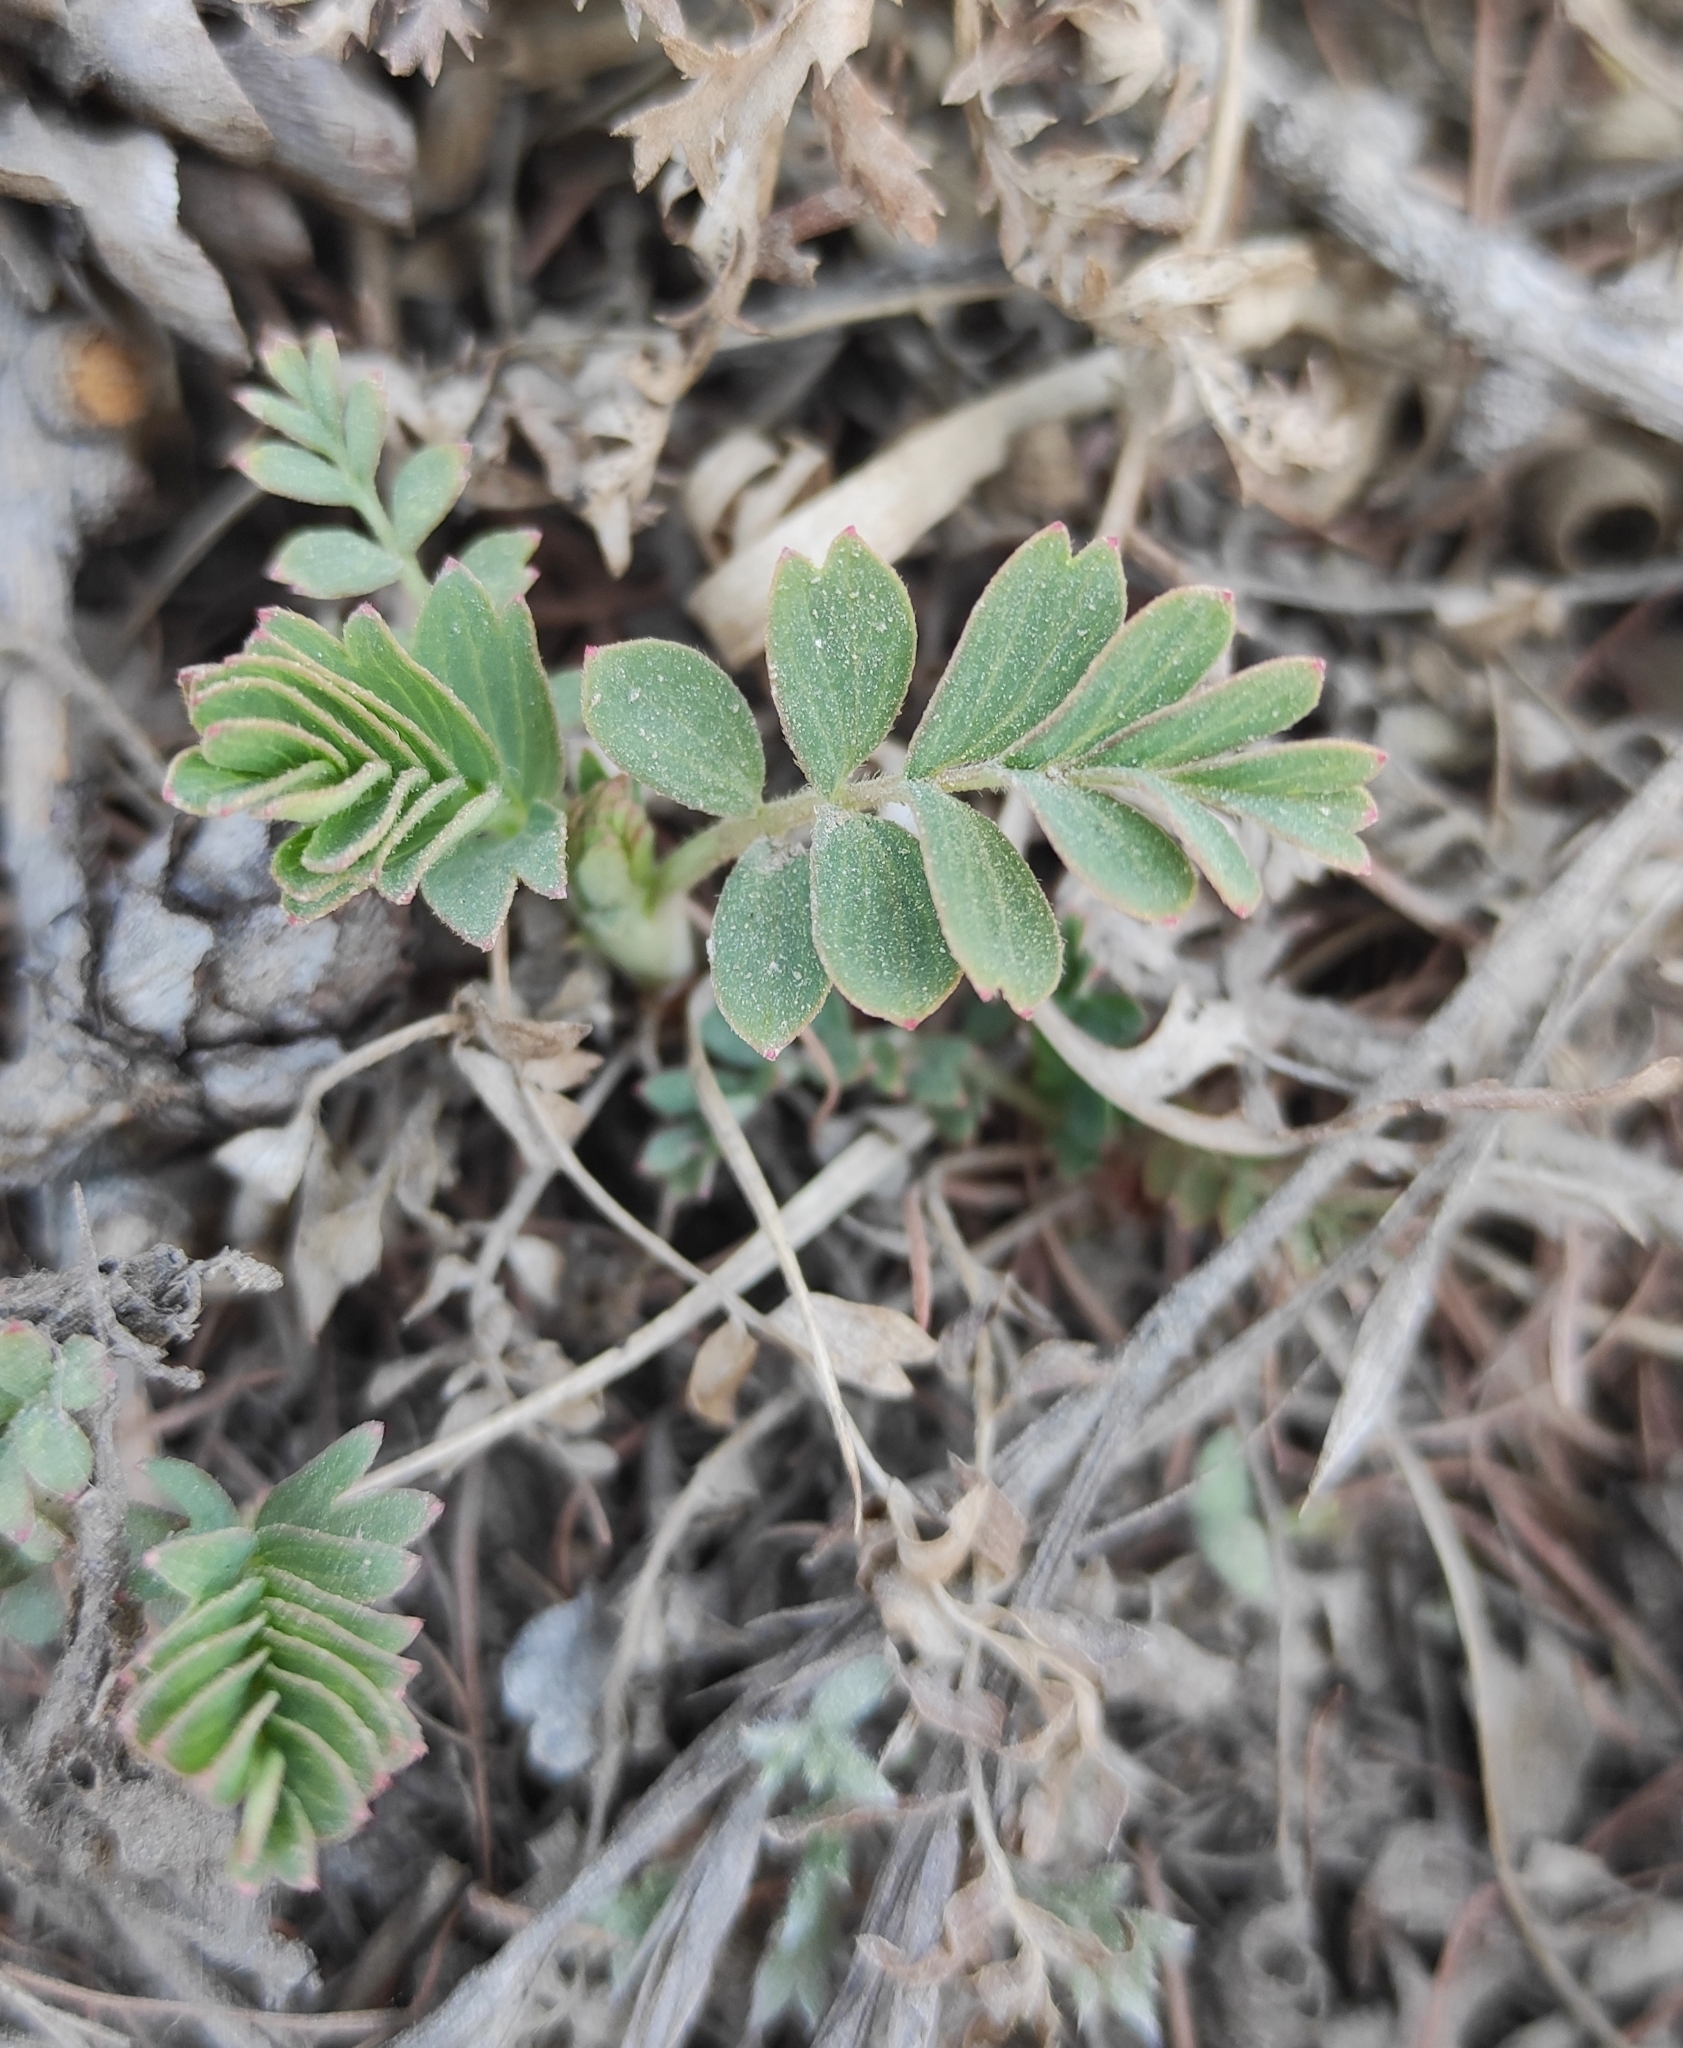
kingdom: Plantae
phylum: Tracheophyta
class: Magnoliopsida
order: Rosales
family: Rosaceae
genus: Sibbaldianthe
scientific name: Sibbaldianthe bifurca
